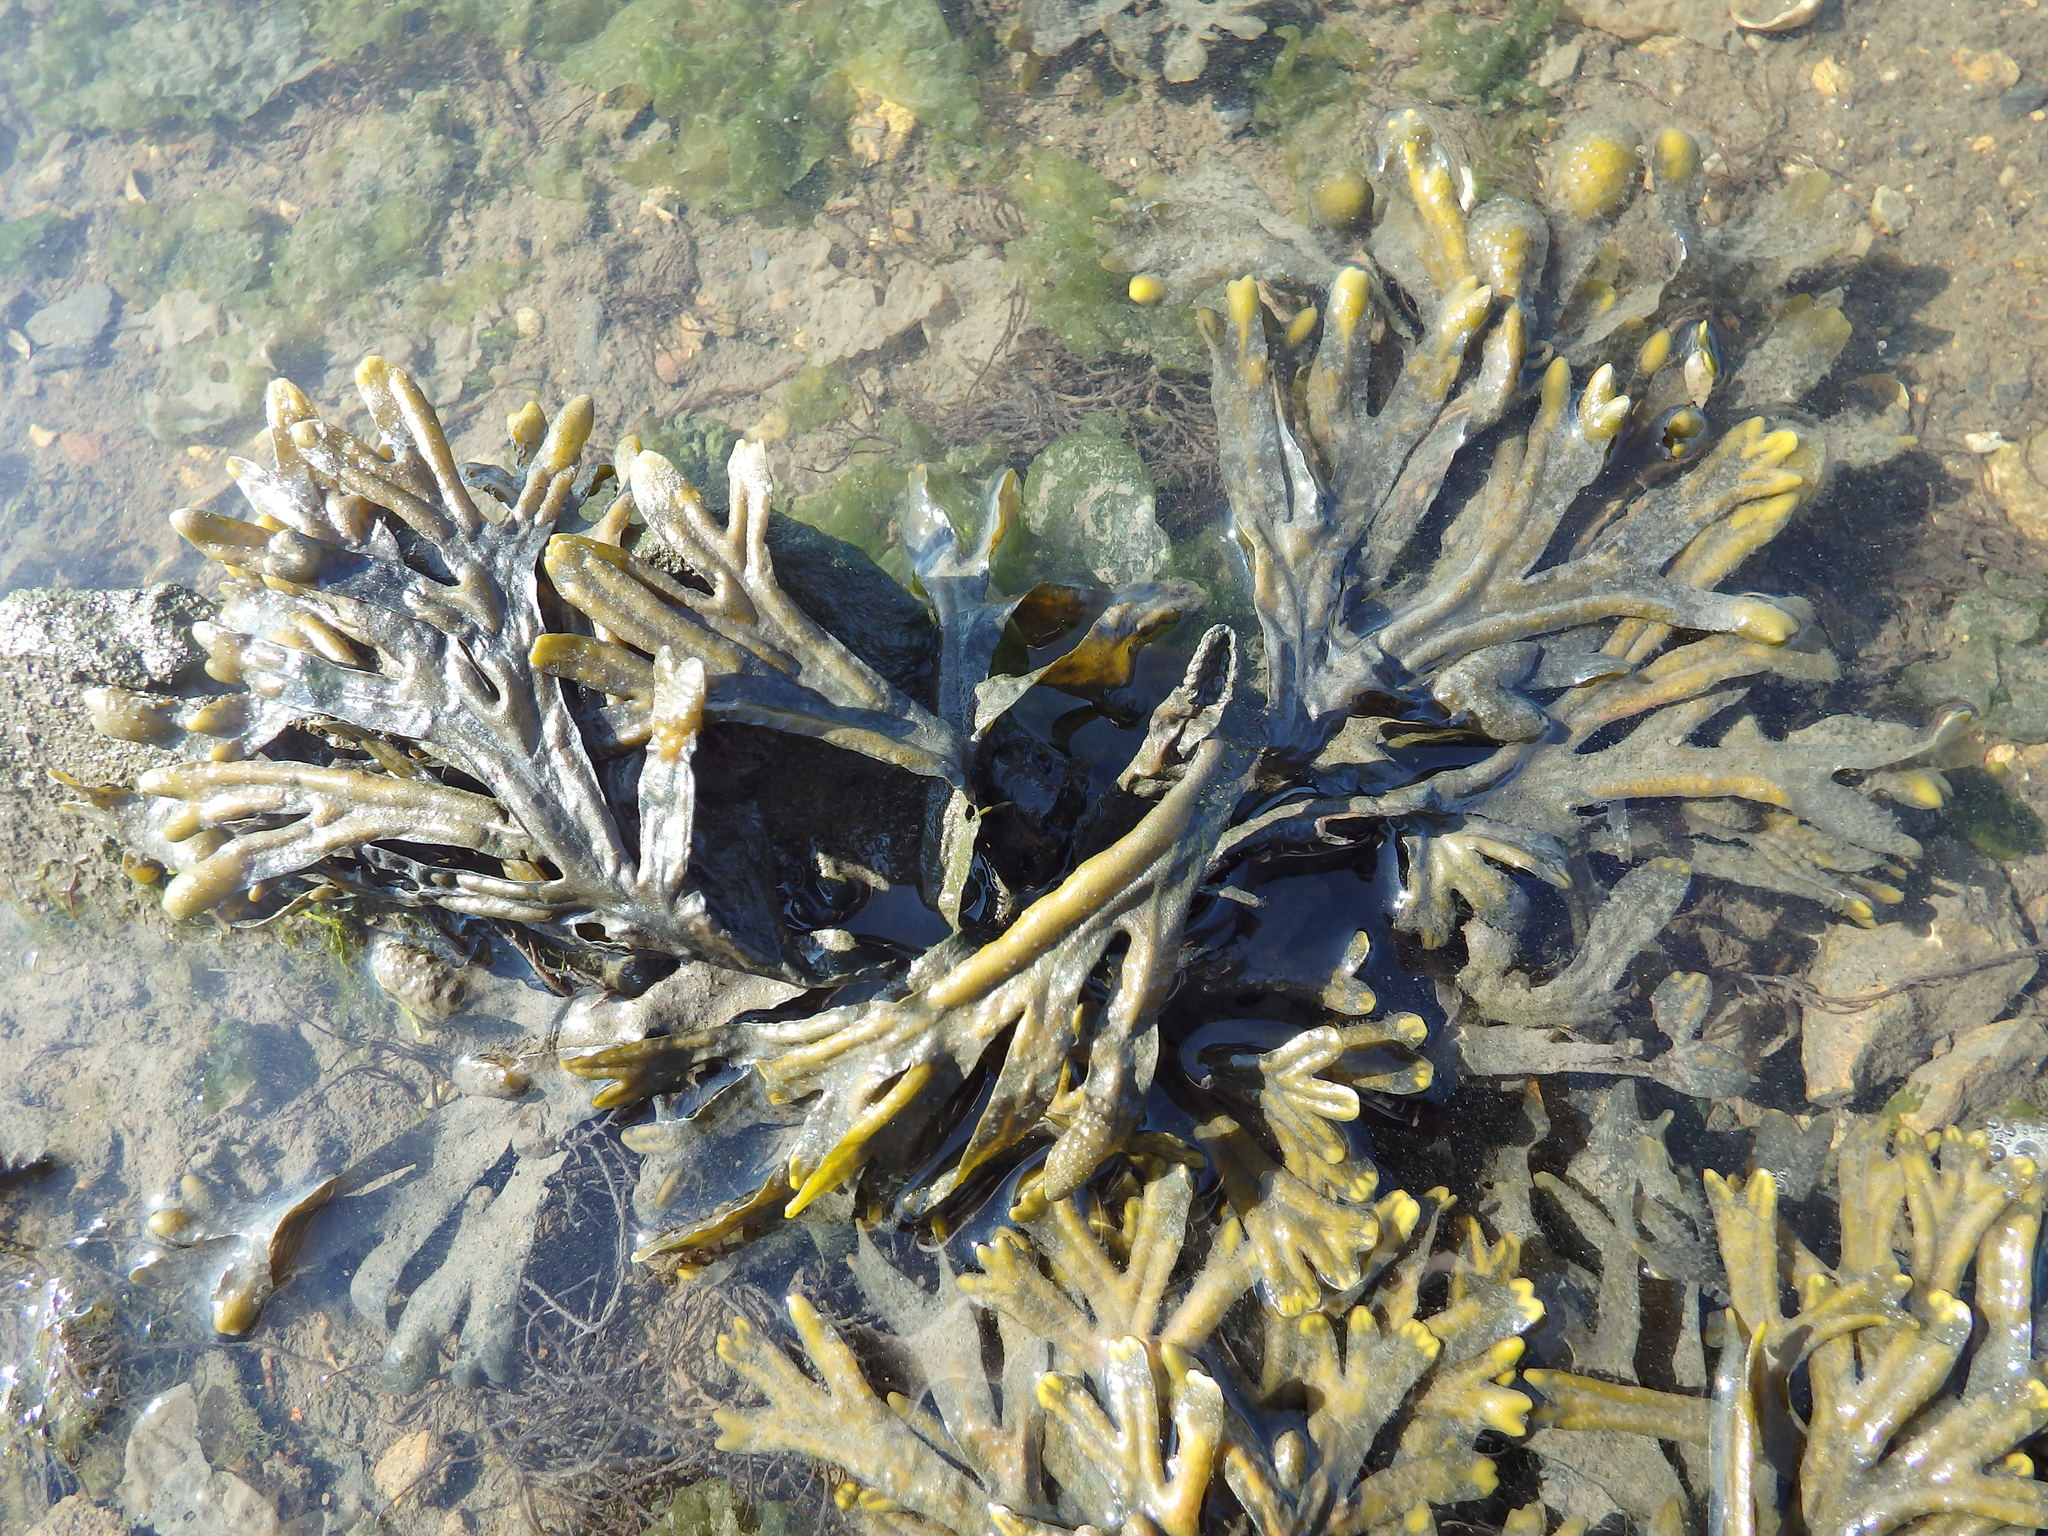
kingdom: Chromista
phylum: Ochrophyta
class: Phaeophyceae
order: Fucales
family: Fucaceae
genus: Fucus
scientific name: Fucus ceranoides
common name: Horned wrack
